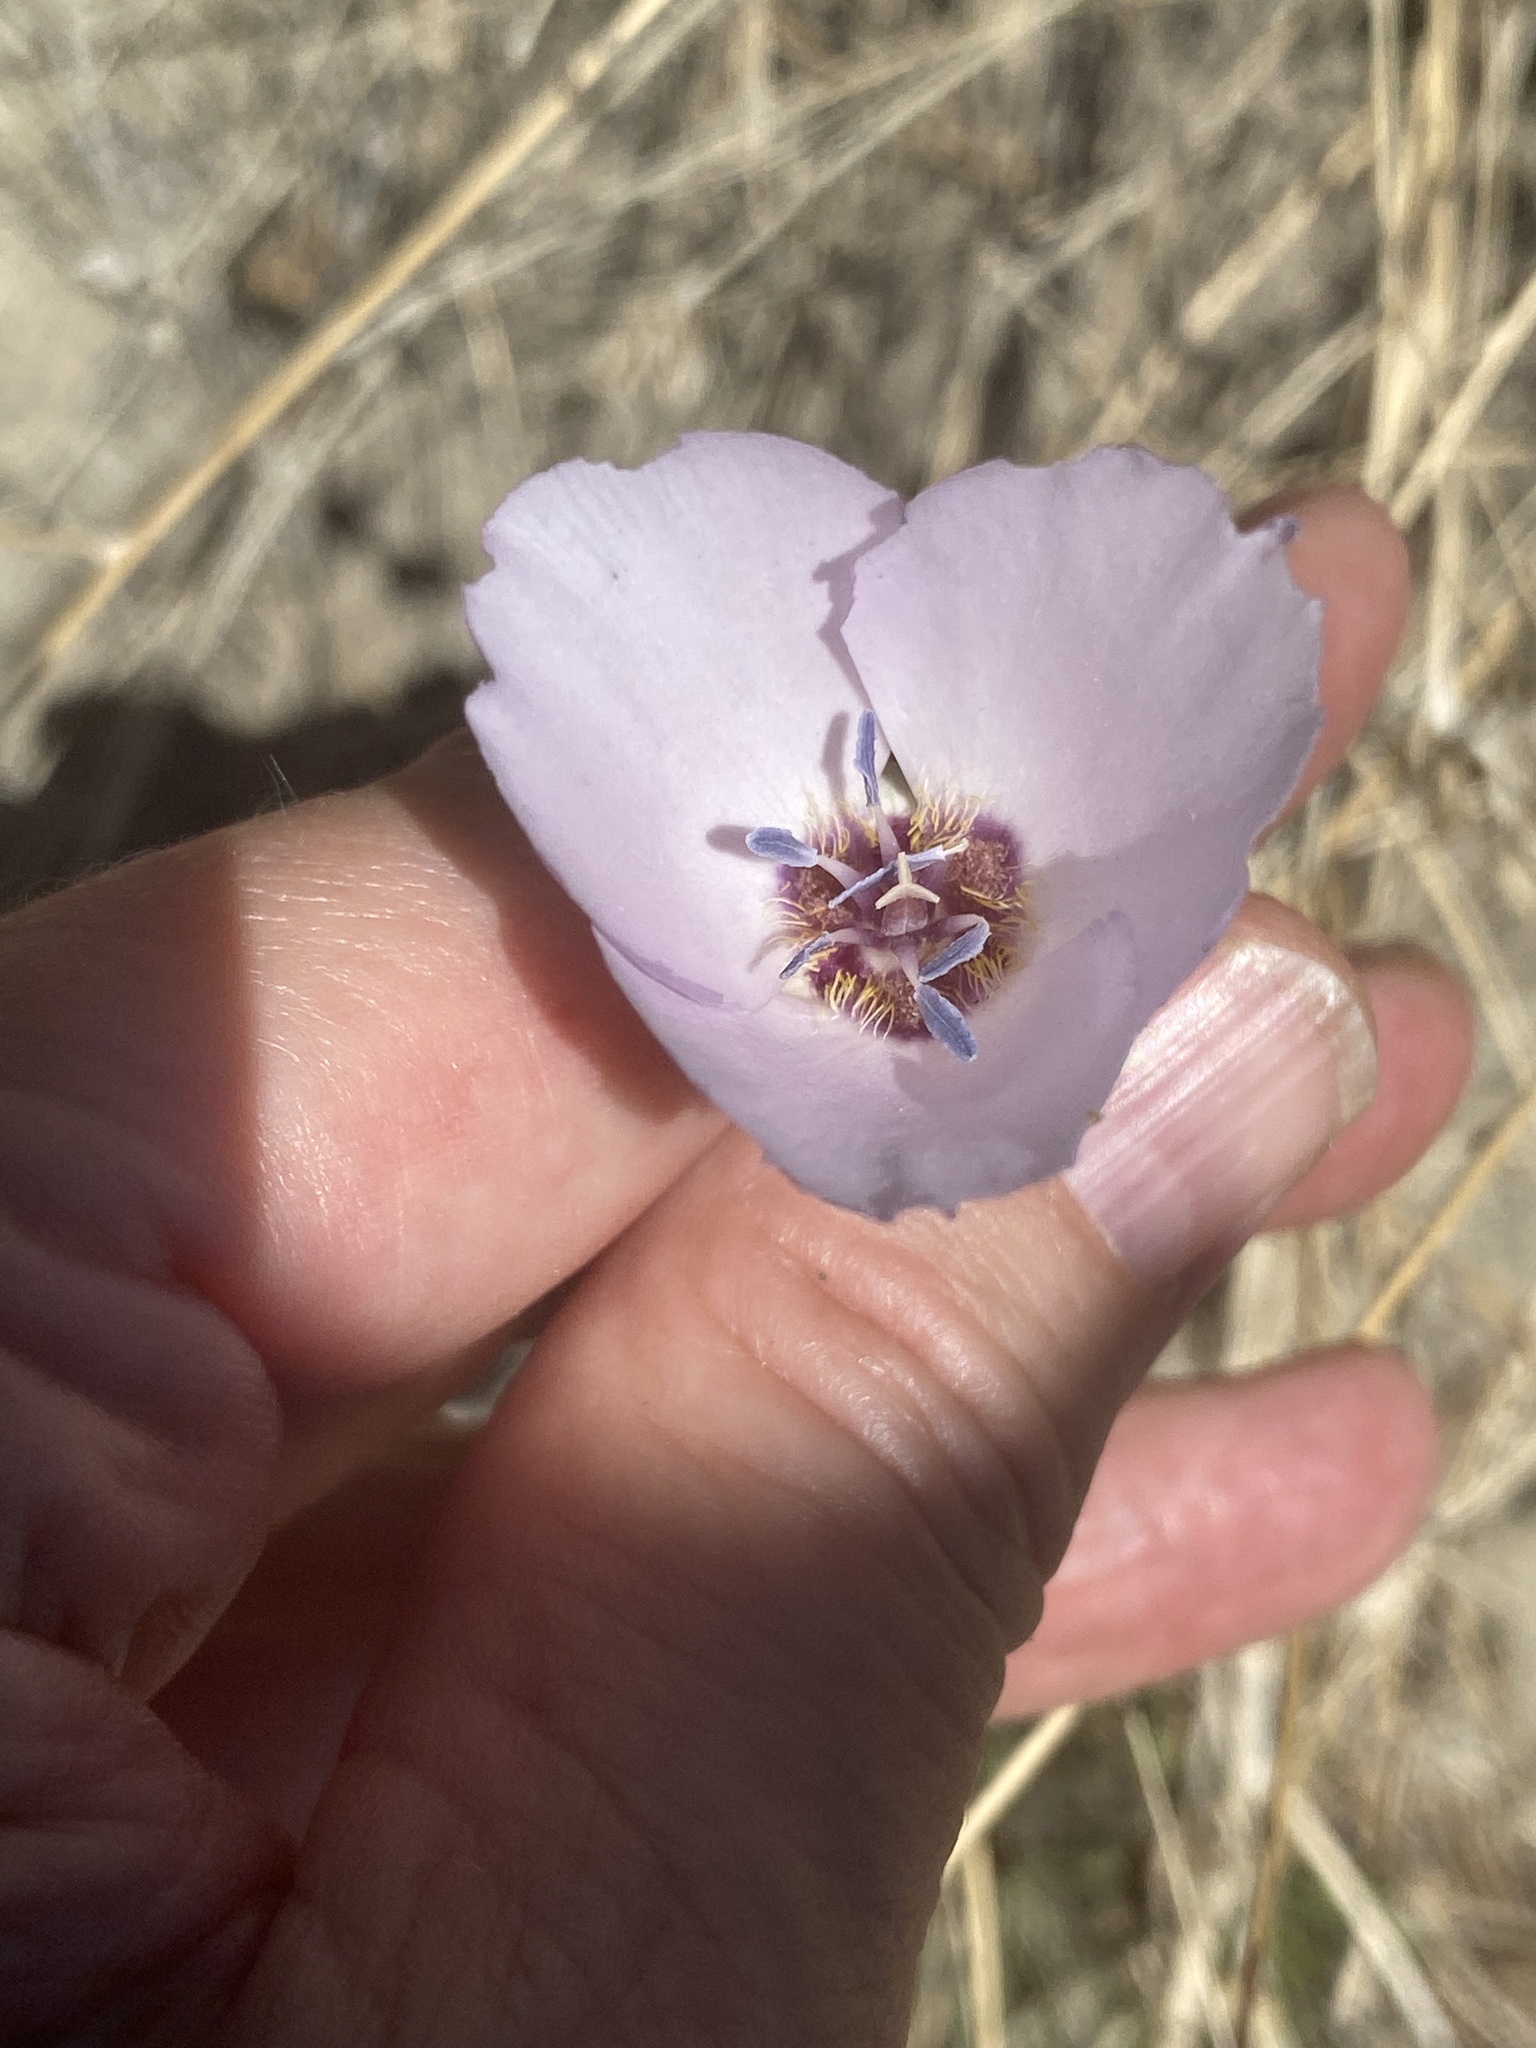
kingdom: Plantae
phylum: Tracheophyta
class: Liliopsida
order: Liliales
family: Liliaceae
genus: Calochortus
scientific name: Calochortus palmeri
